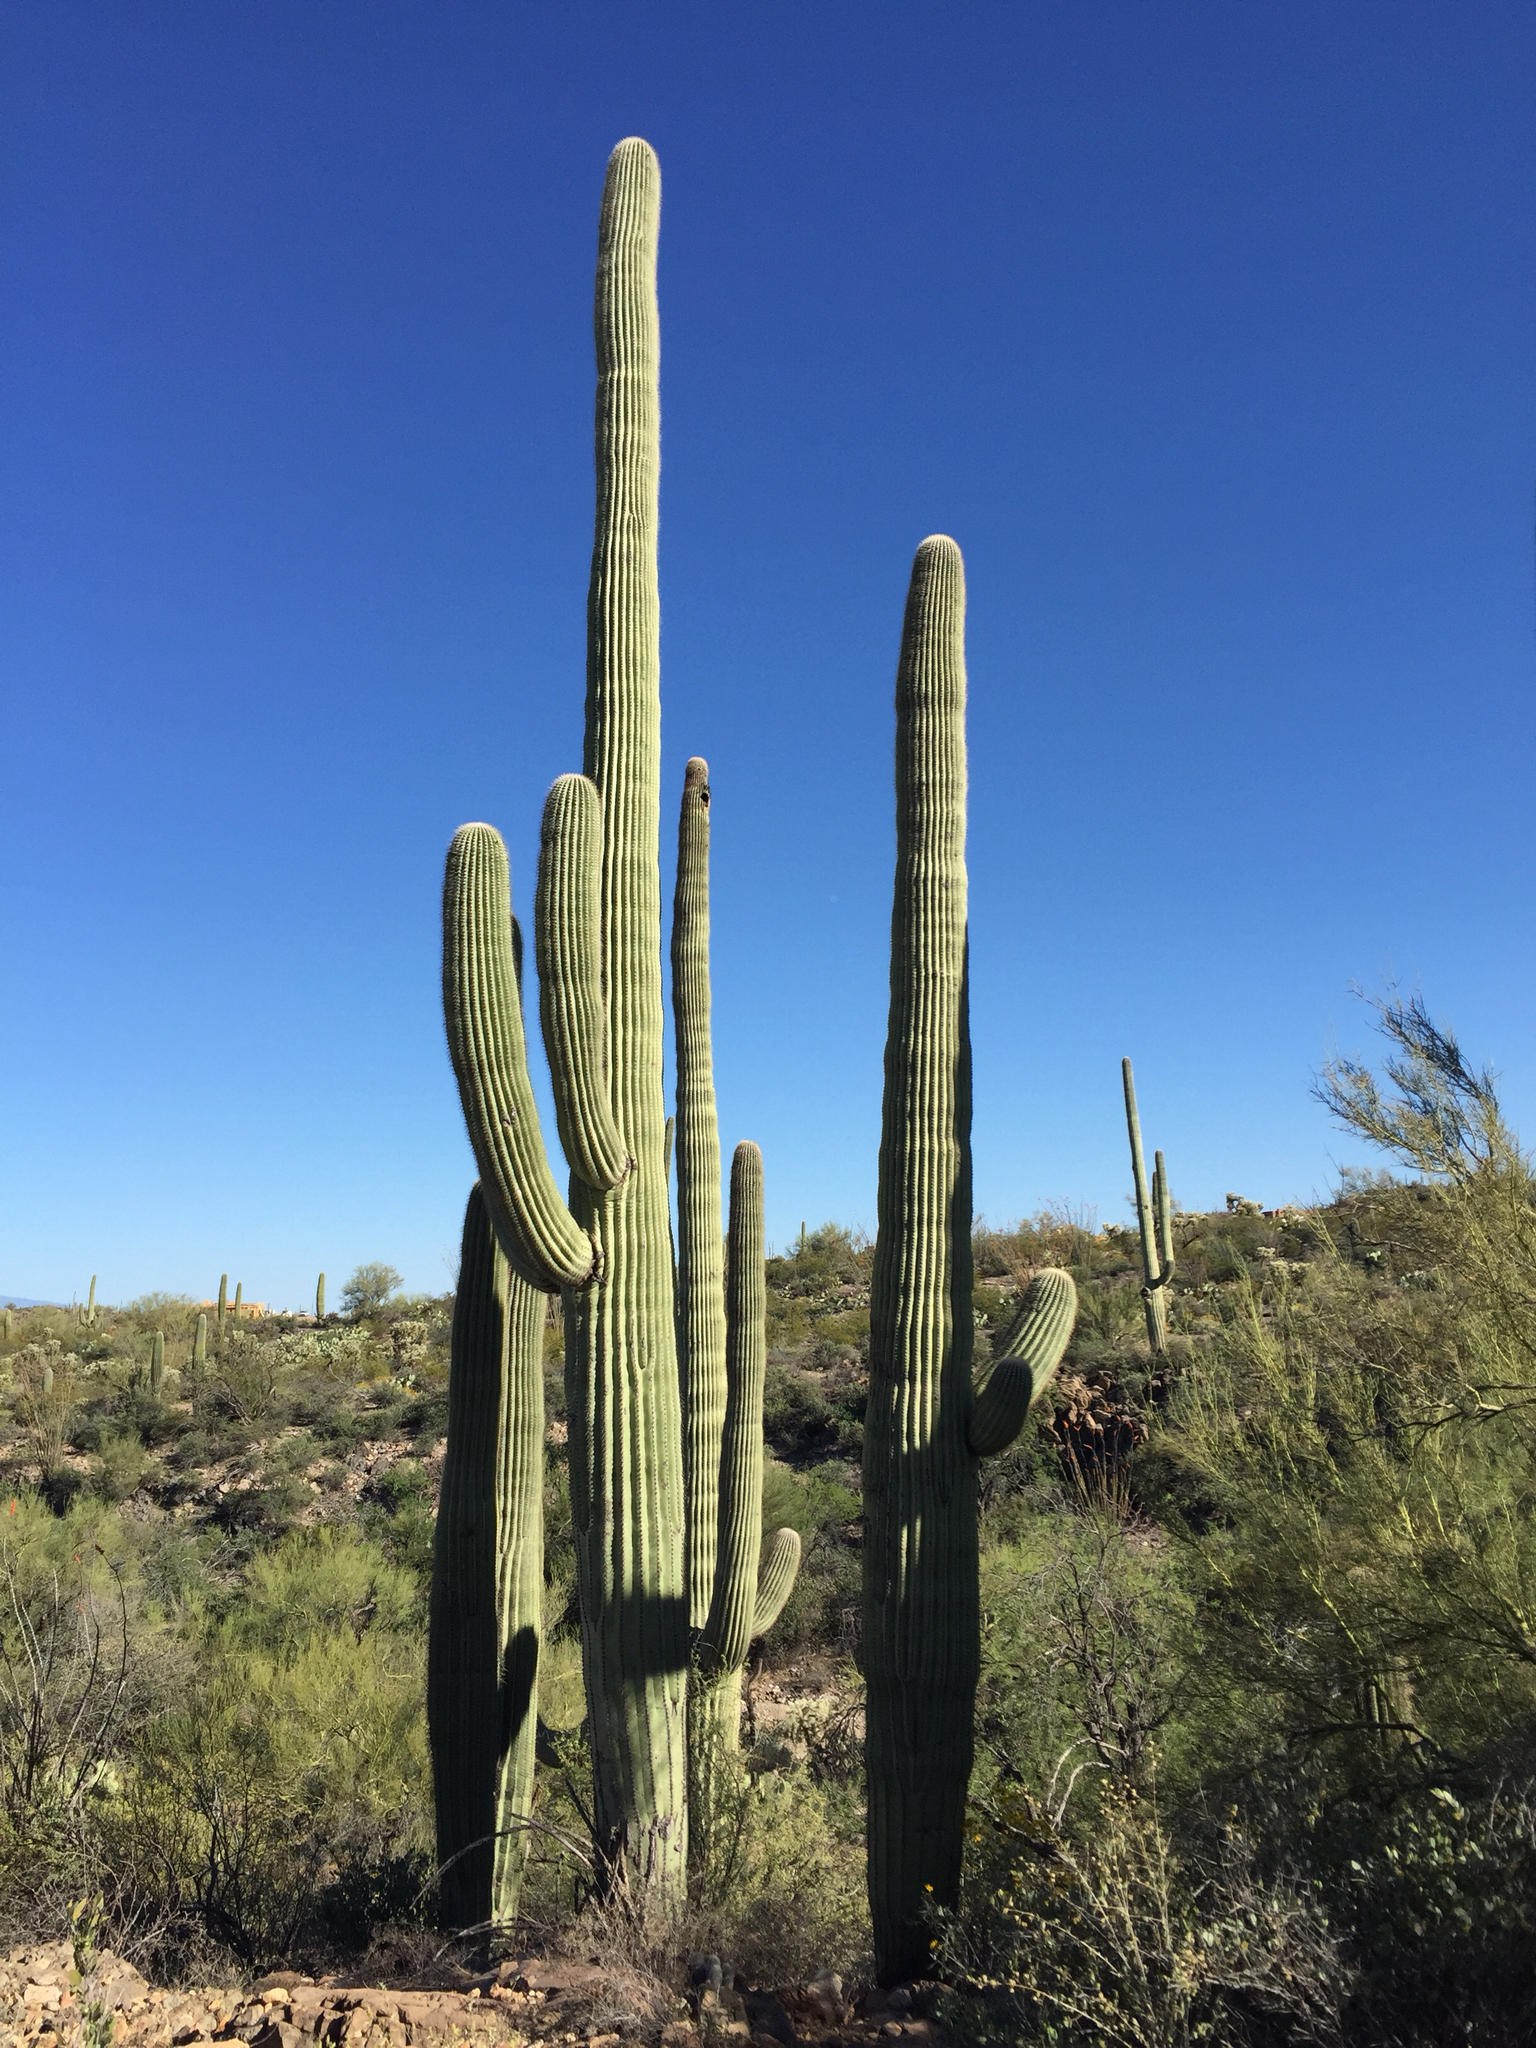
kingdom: Plantae
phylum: Tracheophyta
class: Magnoliopsida
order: Caryophyllales
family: Cactaceae
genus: Carnegiea
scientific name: Carnegiea gigantea
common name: Saguaro
